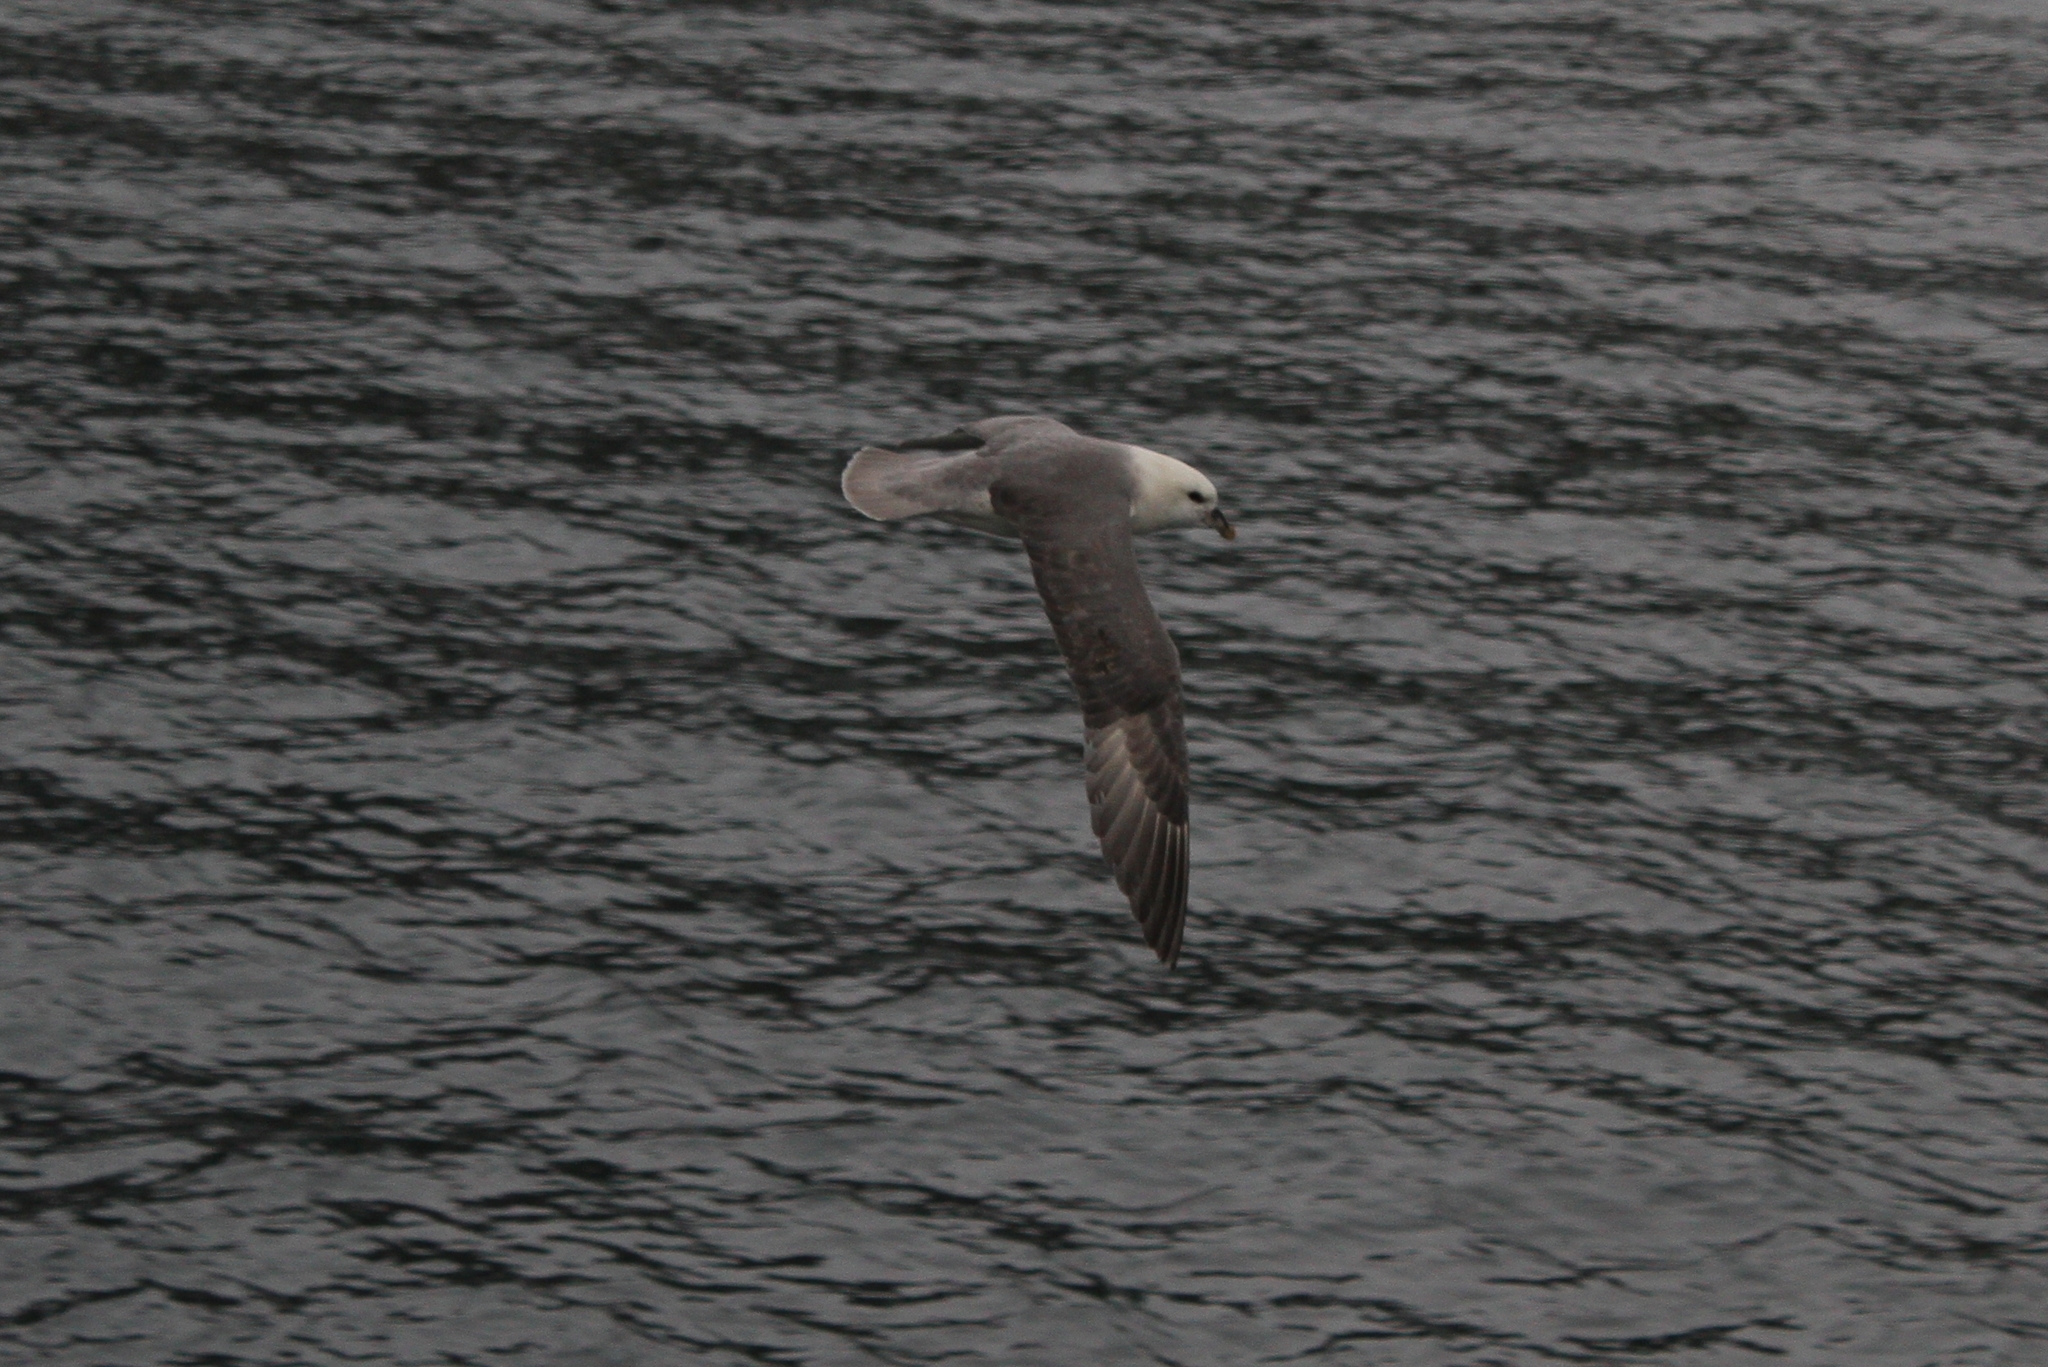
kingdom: Animalia
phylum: Chordata
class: Aves
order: Procellariiformes
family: Procellariidae
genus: Fulmarus
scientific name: Fulmarus glacialis
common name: Northern fulmar
